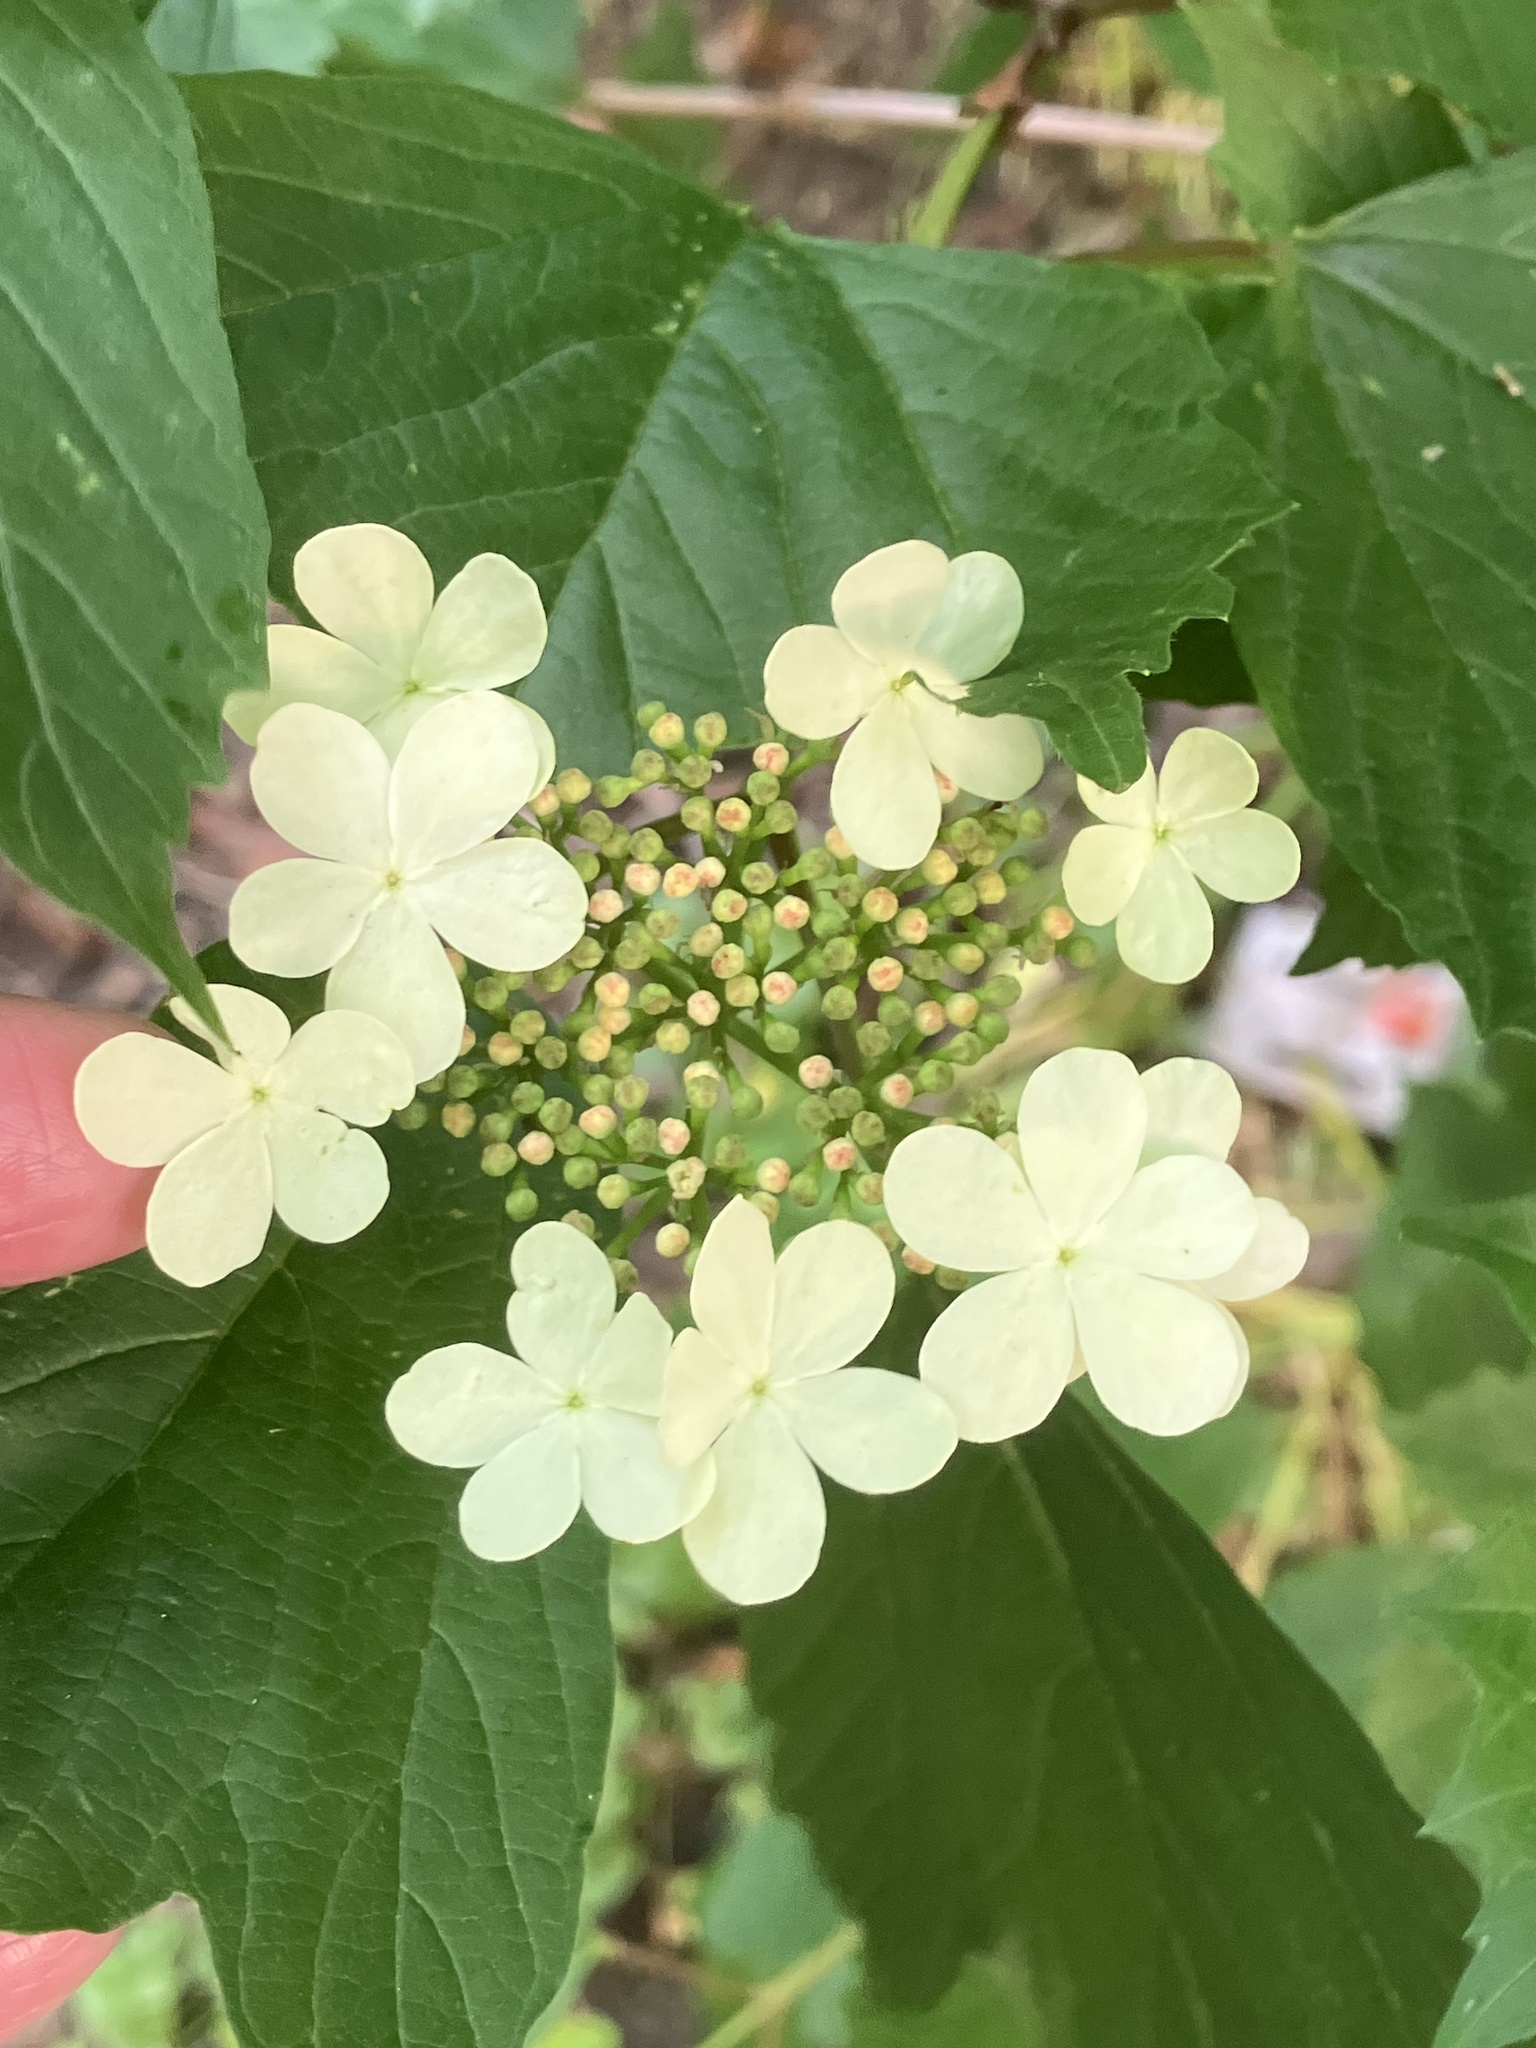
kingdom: Plantae
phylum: Tracheophyta
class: Magnoliopsida
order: Dipsacales
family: Viburnaceae
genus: Viburnum
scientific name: Viburnum opulus
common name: Guelder-rose
